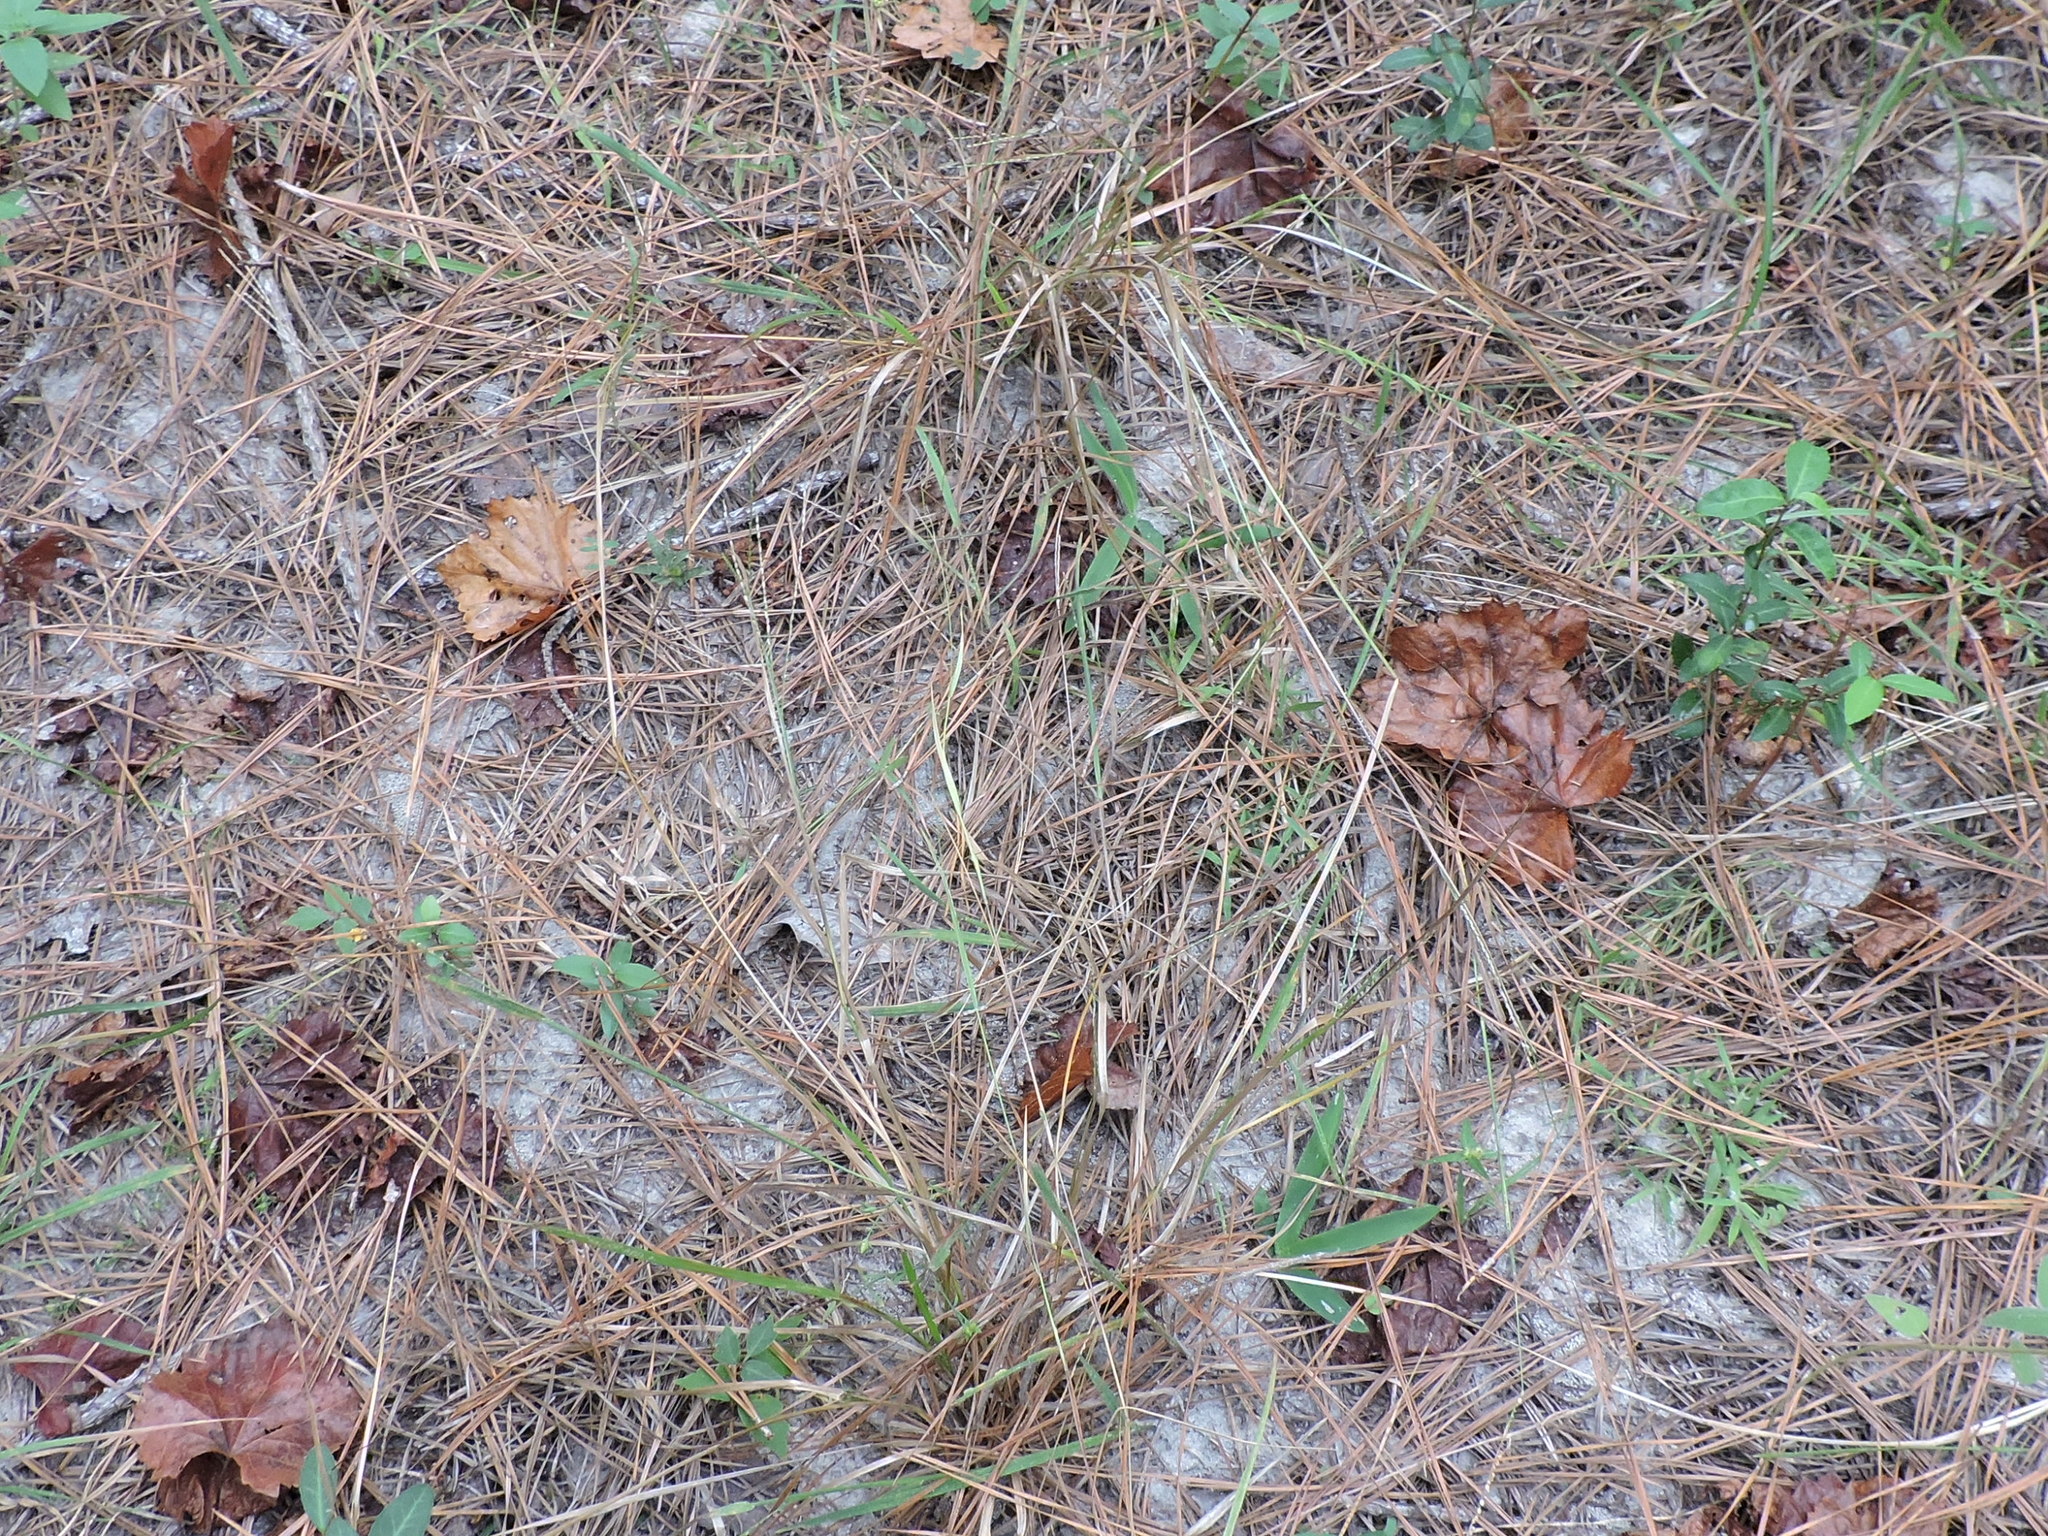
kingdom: Plantae
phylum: Tracheophyta
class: Liliopsida
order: Poales
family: Poaceae
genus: Kellochloa
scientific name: Kellochloa brachyantha
